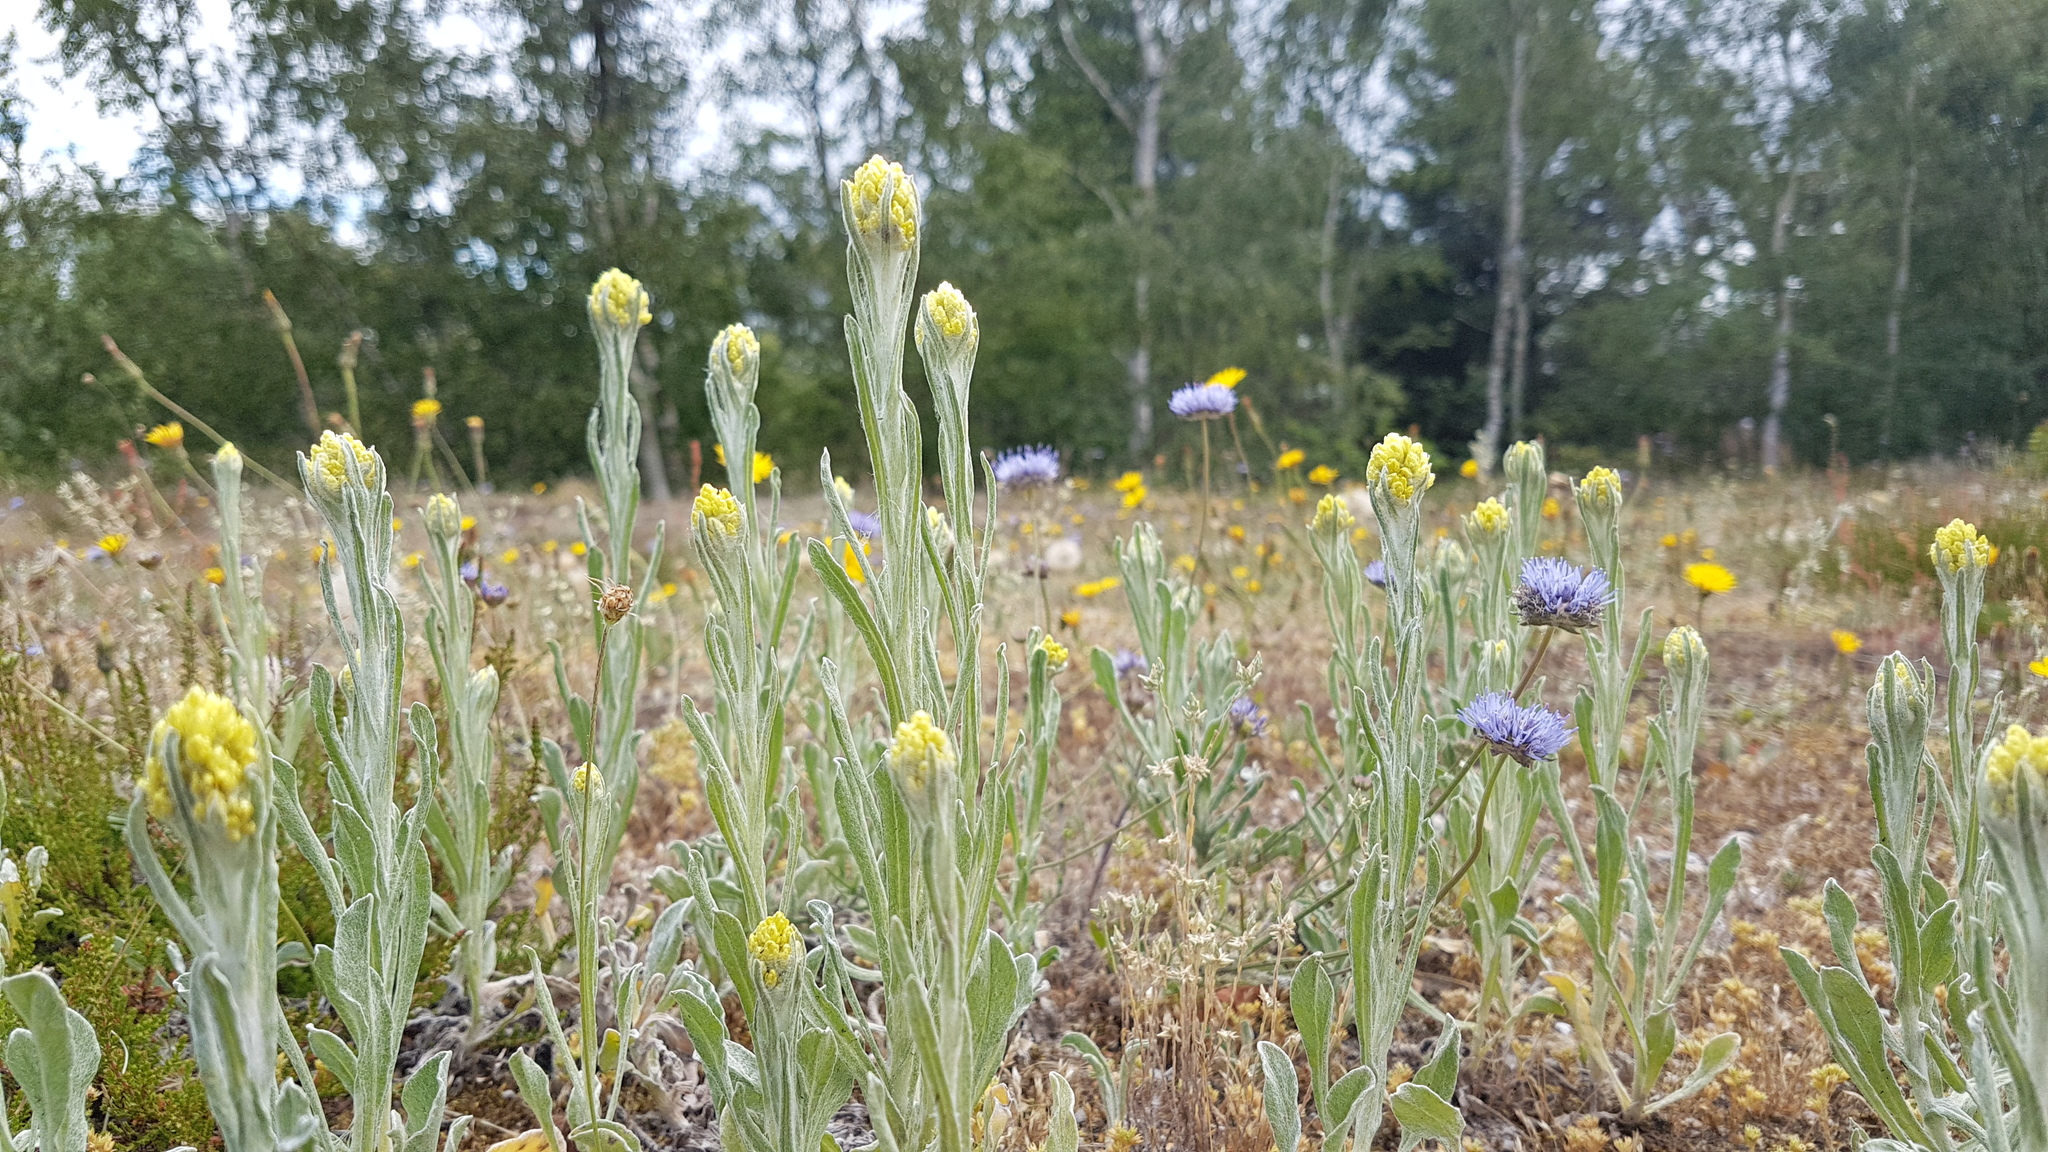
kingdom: Plantae
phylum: Tracheophyta
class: Magnoliopsida
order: Asterales
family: Campanulaceae
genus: Jasione
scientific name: Jasione montana
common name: Sheep's-bit
